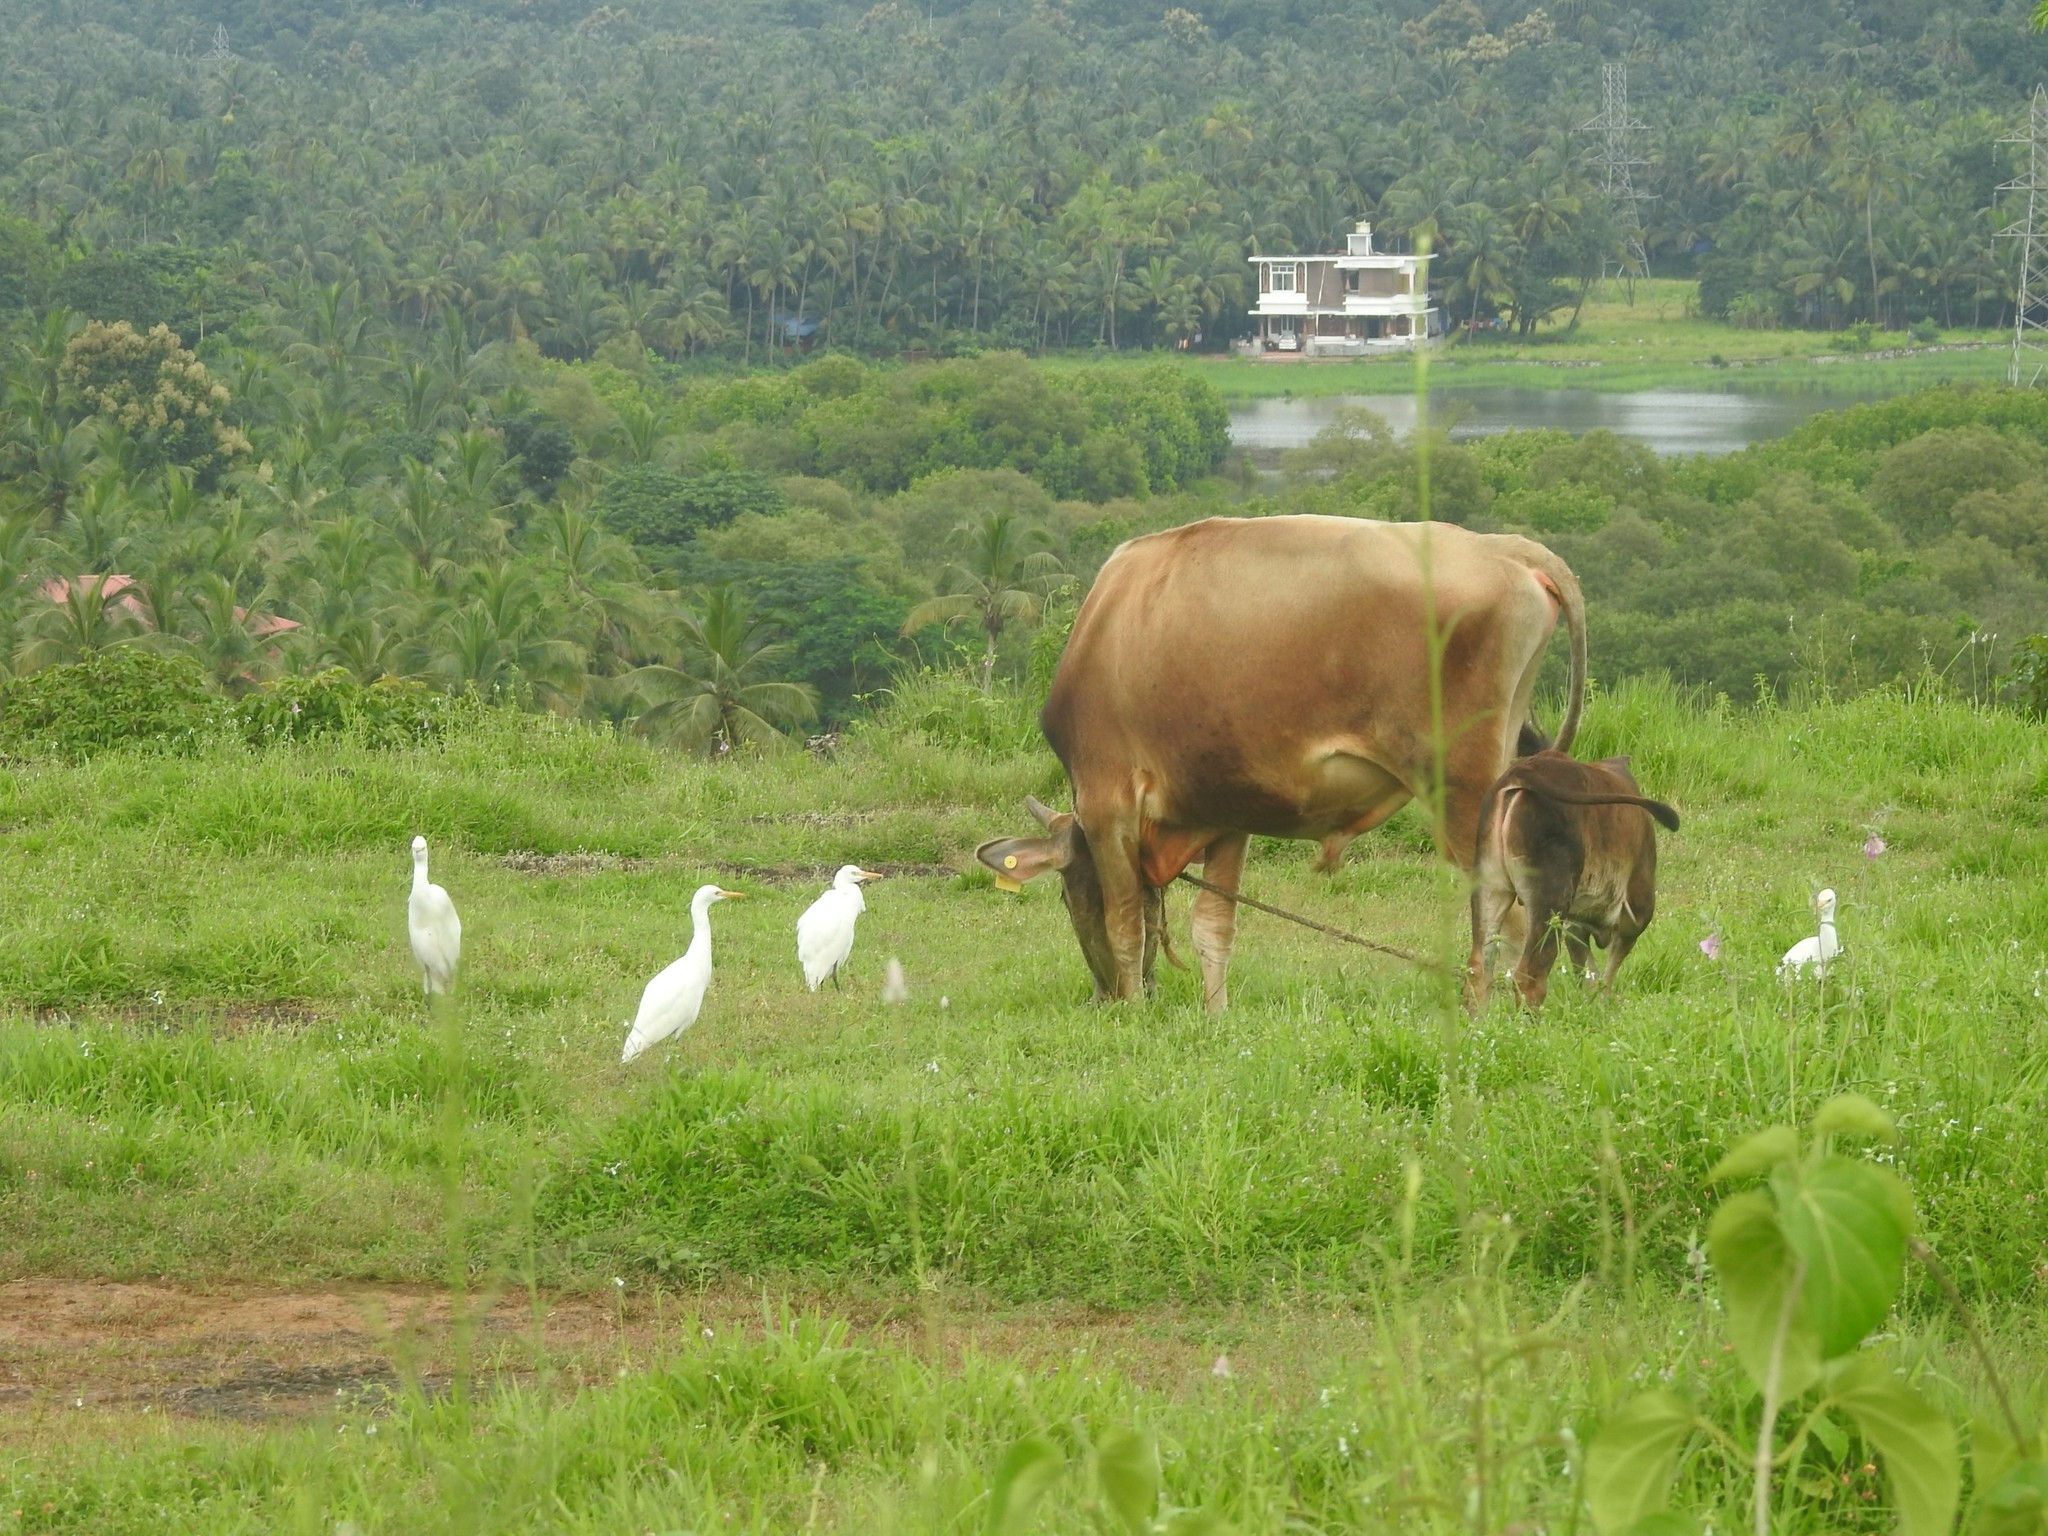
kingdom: Animalia
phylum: Chordata
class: Aves
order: Pelecaniformes
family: Ardeidae
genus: Bubulcus
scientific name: Bubulcus coromandus
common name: Eastern cattle egret
